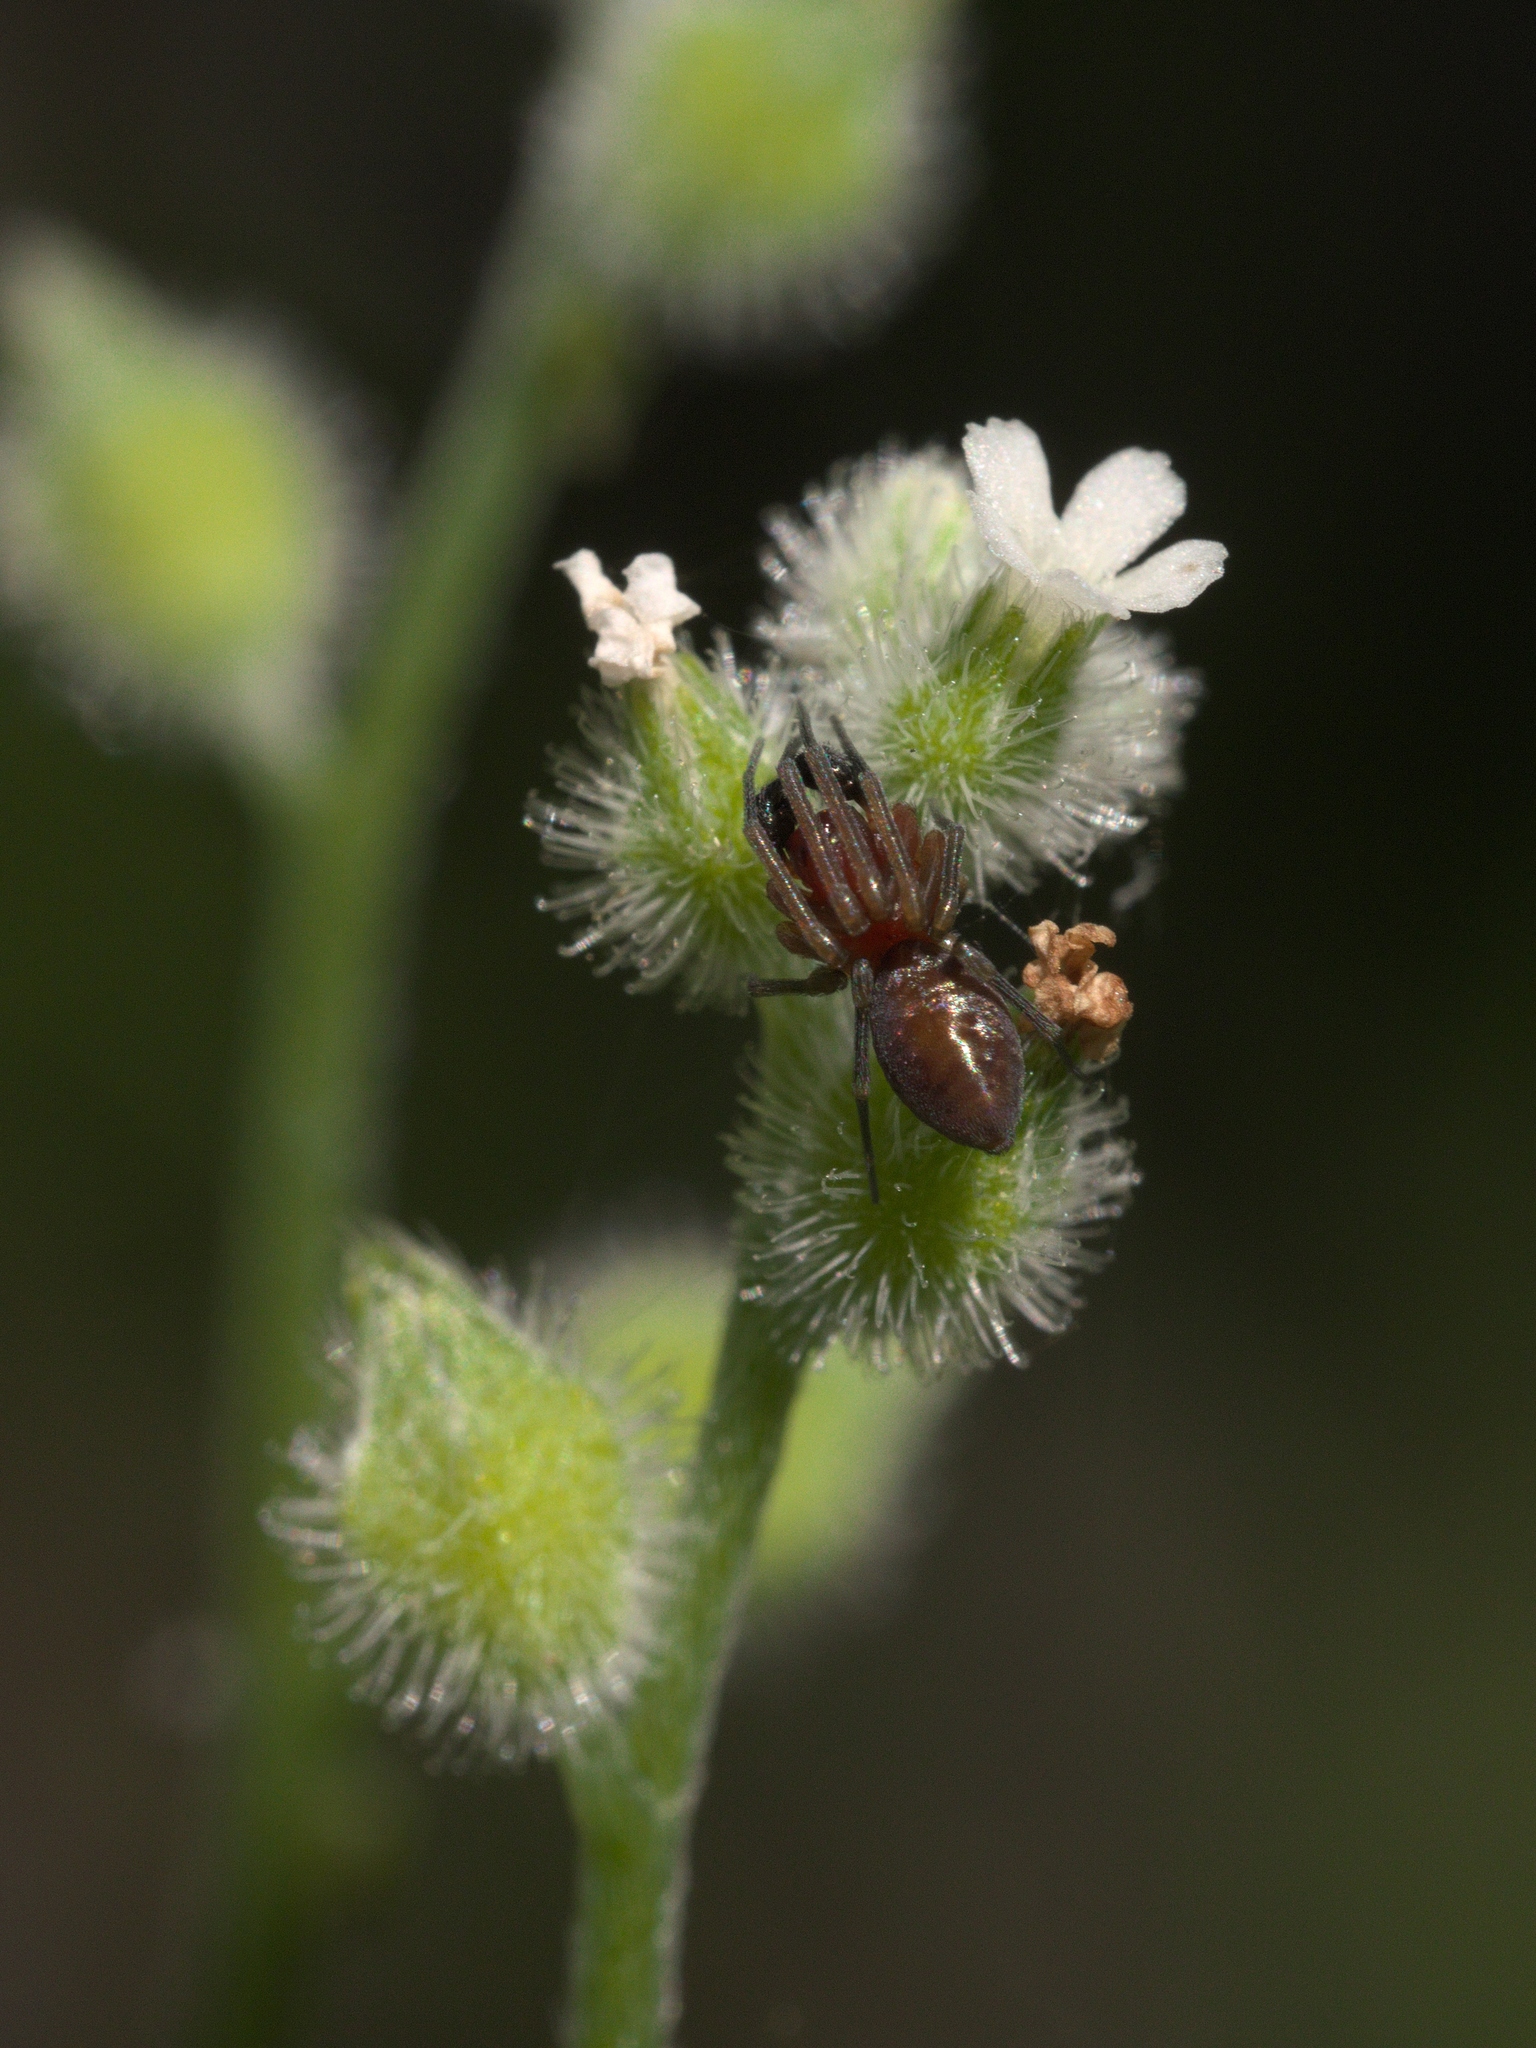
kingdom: Plantae
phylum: Tracheophyta
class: Magnoliopsida
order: Boraginales
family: Boraginaceae
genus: Myosotis
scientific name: Myosotis macrosperma
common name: Large-seed forget-me-not
